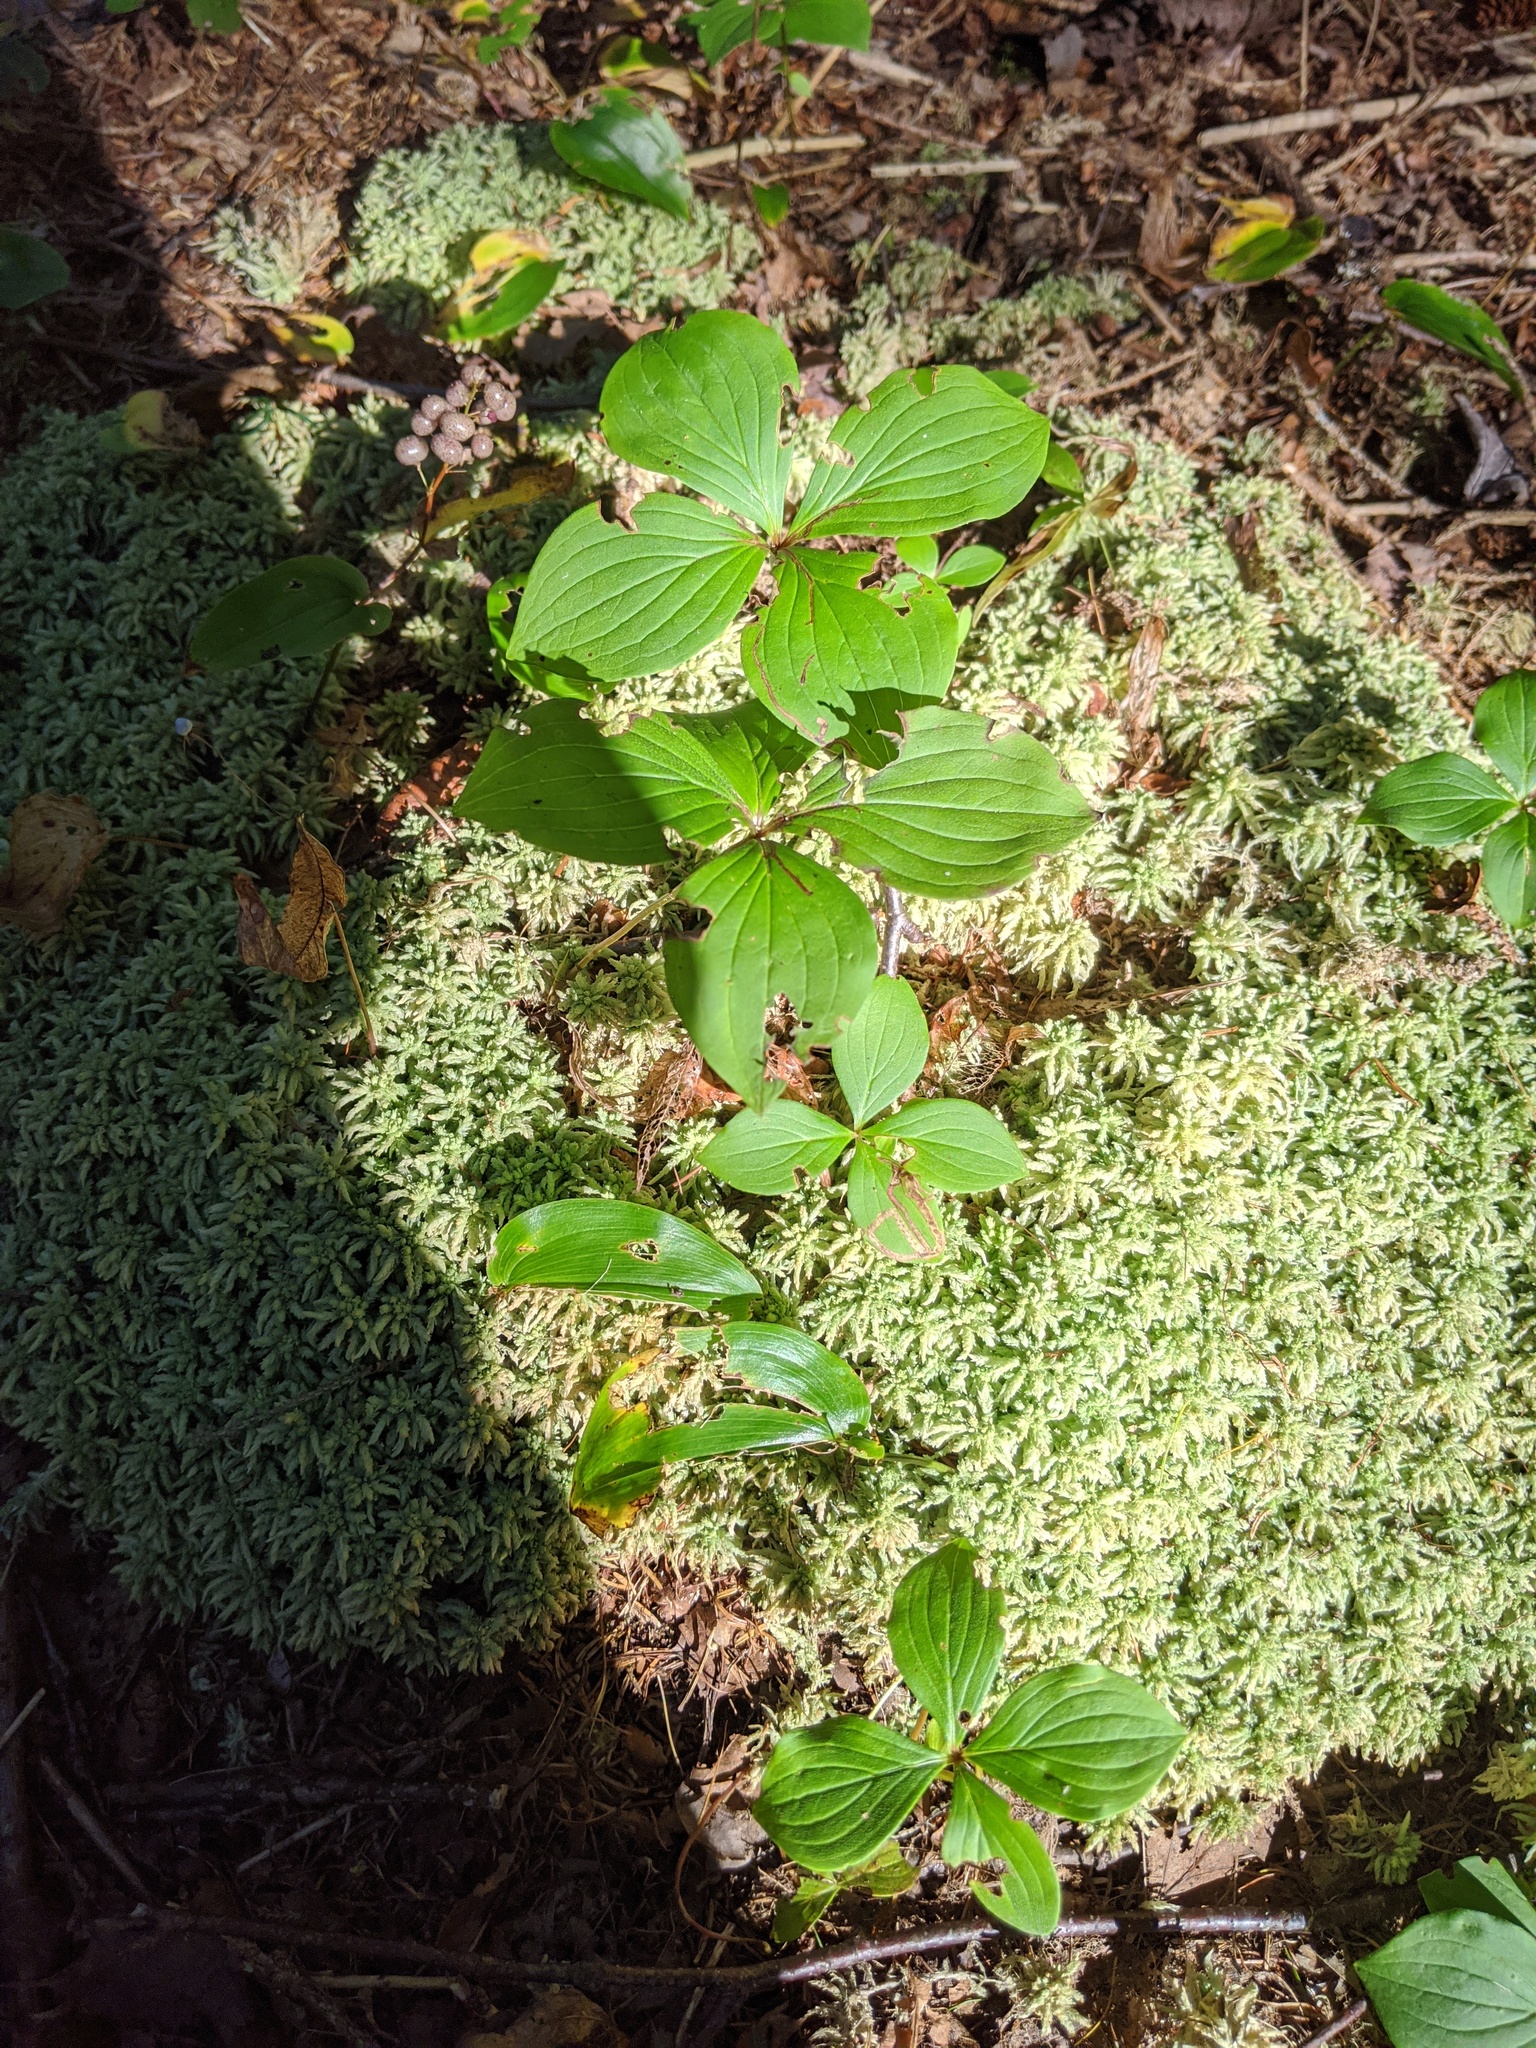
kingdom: Plantae
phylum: Tracheophyta
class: Magnoliopsida
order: Cornales
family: Cornaceae
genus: Cornus
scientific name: Cornus canadensis
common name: Creeping dogwood
